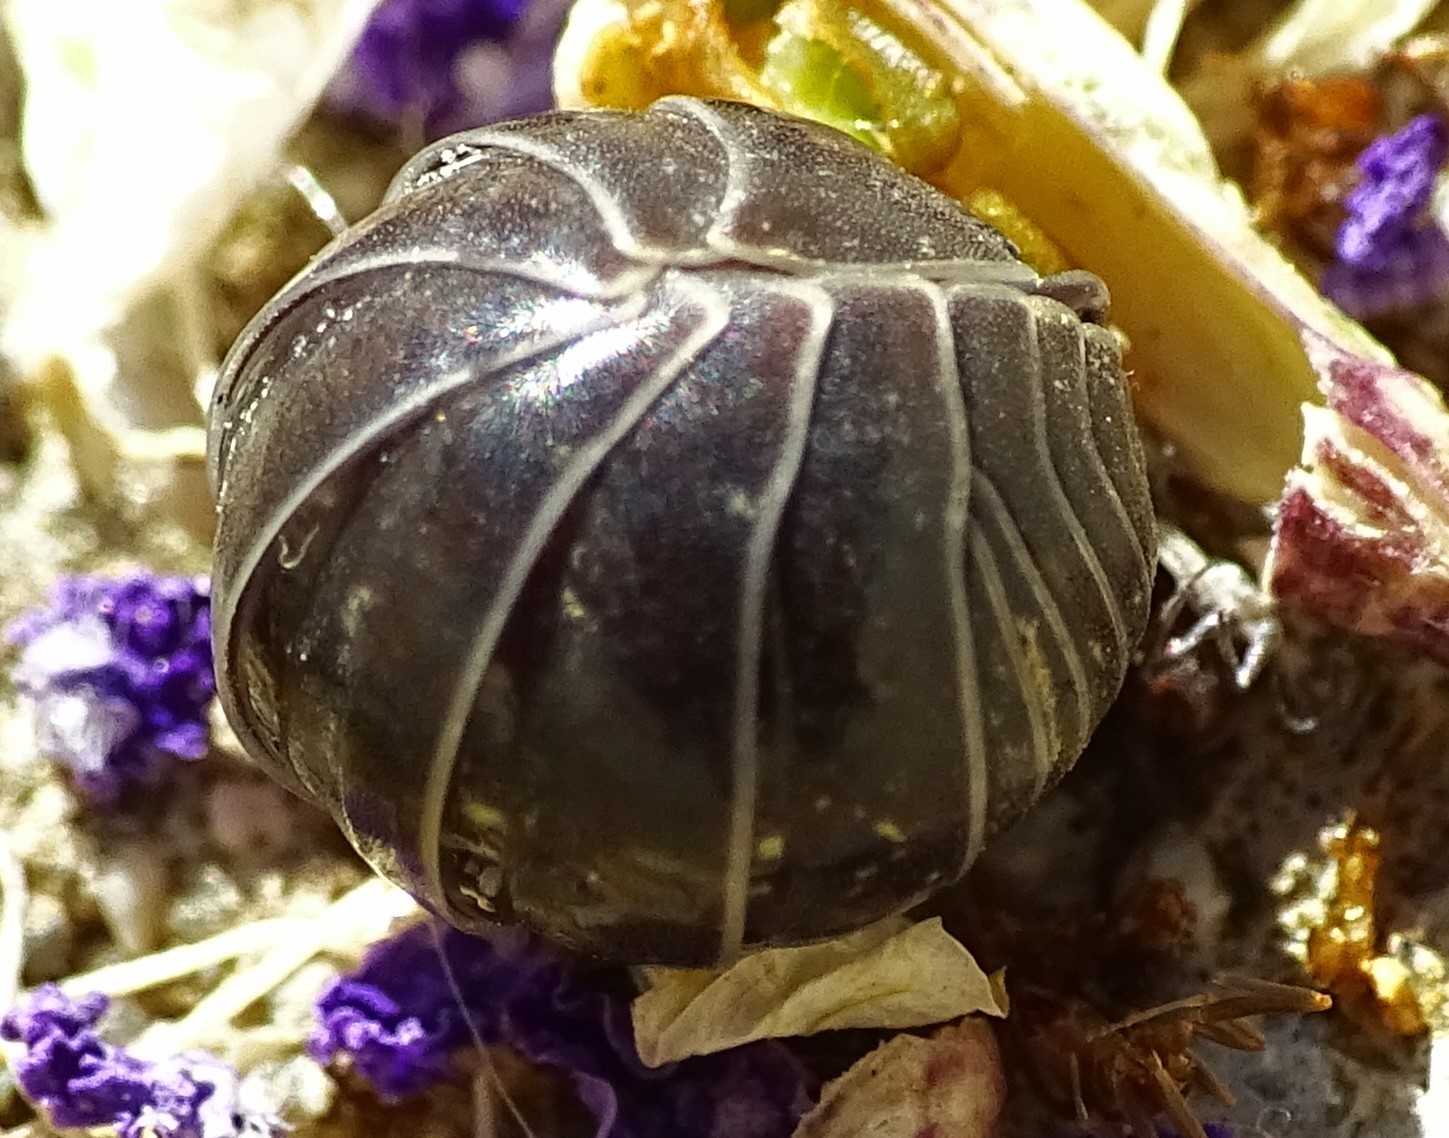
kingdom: Animalia
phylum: Arthropoda
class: Malacostraca
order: Isopoda
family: Armadillidiidae
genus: Armadillidium
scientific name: Armadillidium vulgare
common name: Common pill woodlouse
